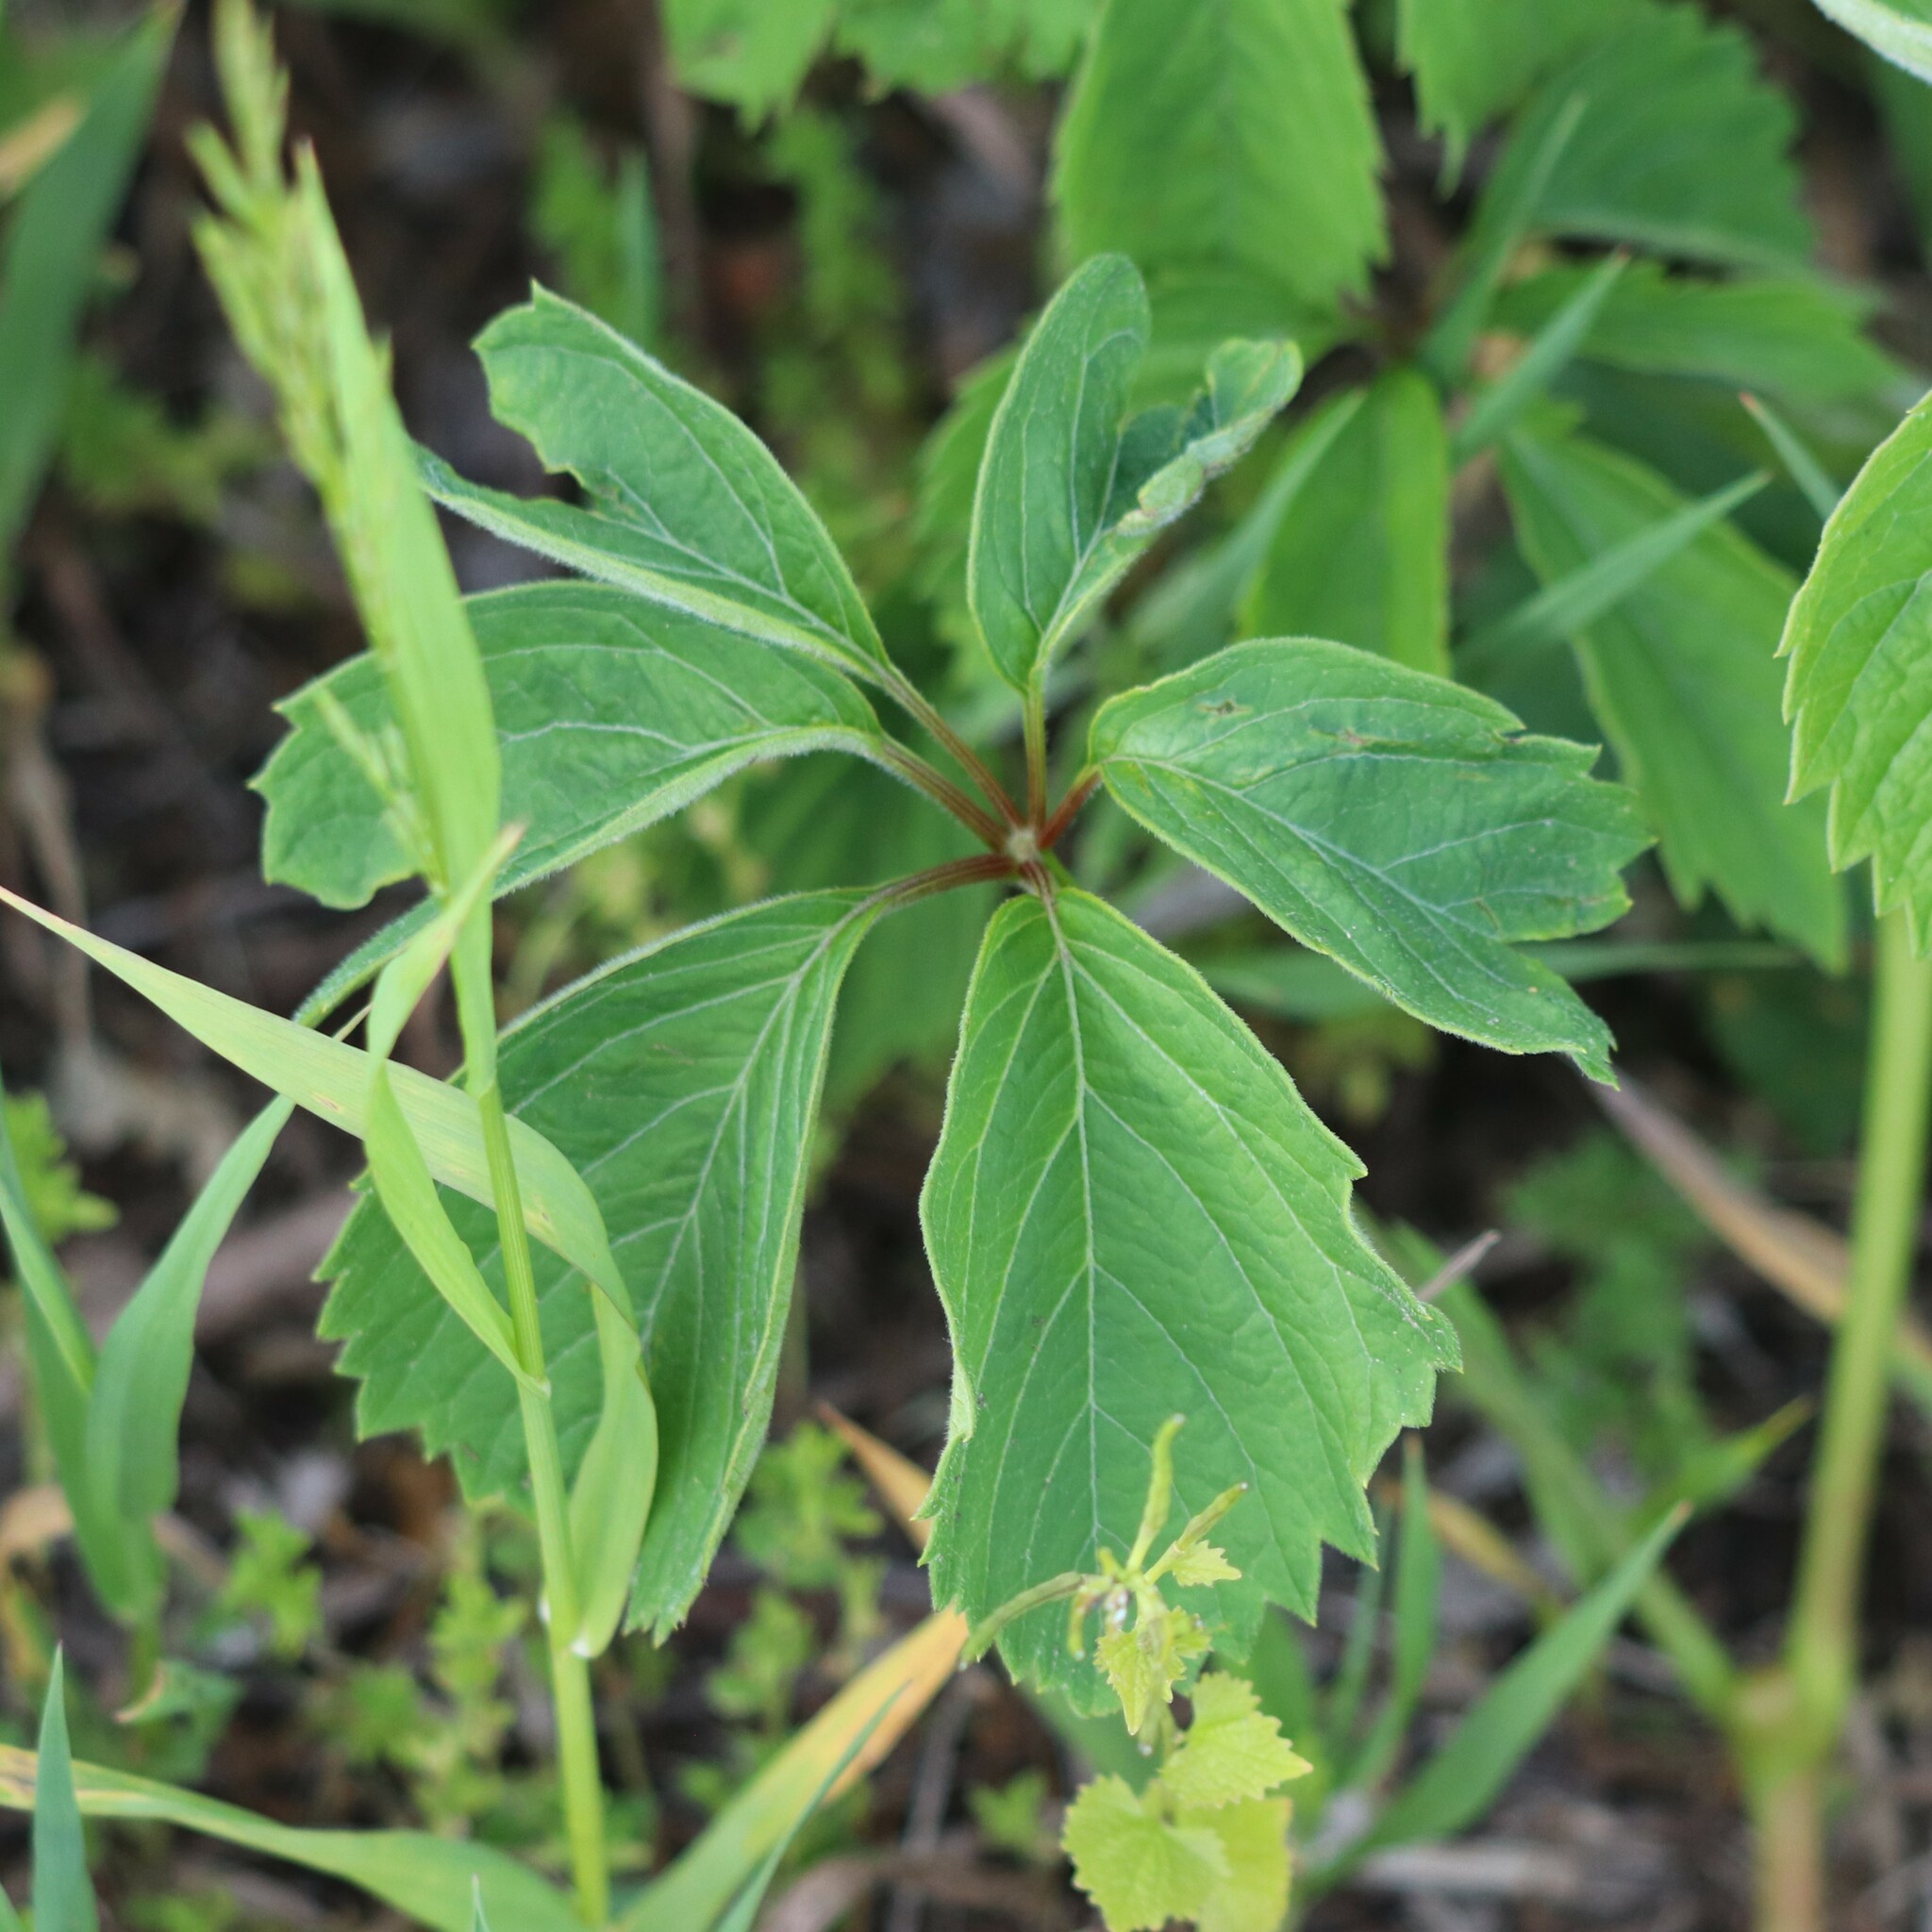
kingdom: Plantae
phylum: Tracheophyta
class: Magnoliopsida
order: Vitales
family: Vitaceae
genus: Parthenocissus
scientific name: Parthenocissus inserta
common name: False virginia-creeper
